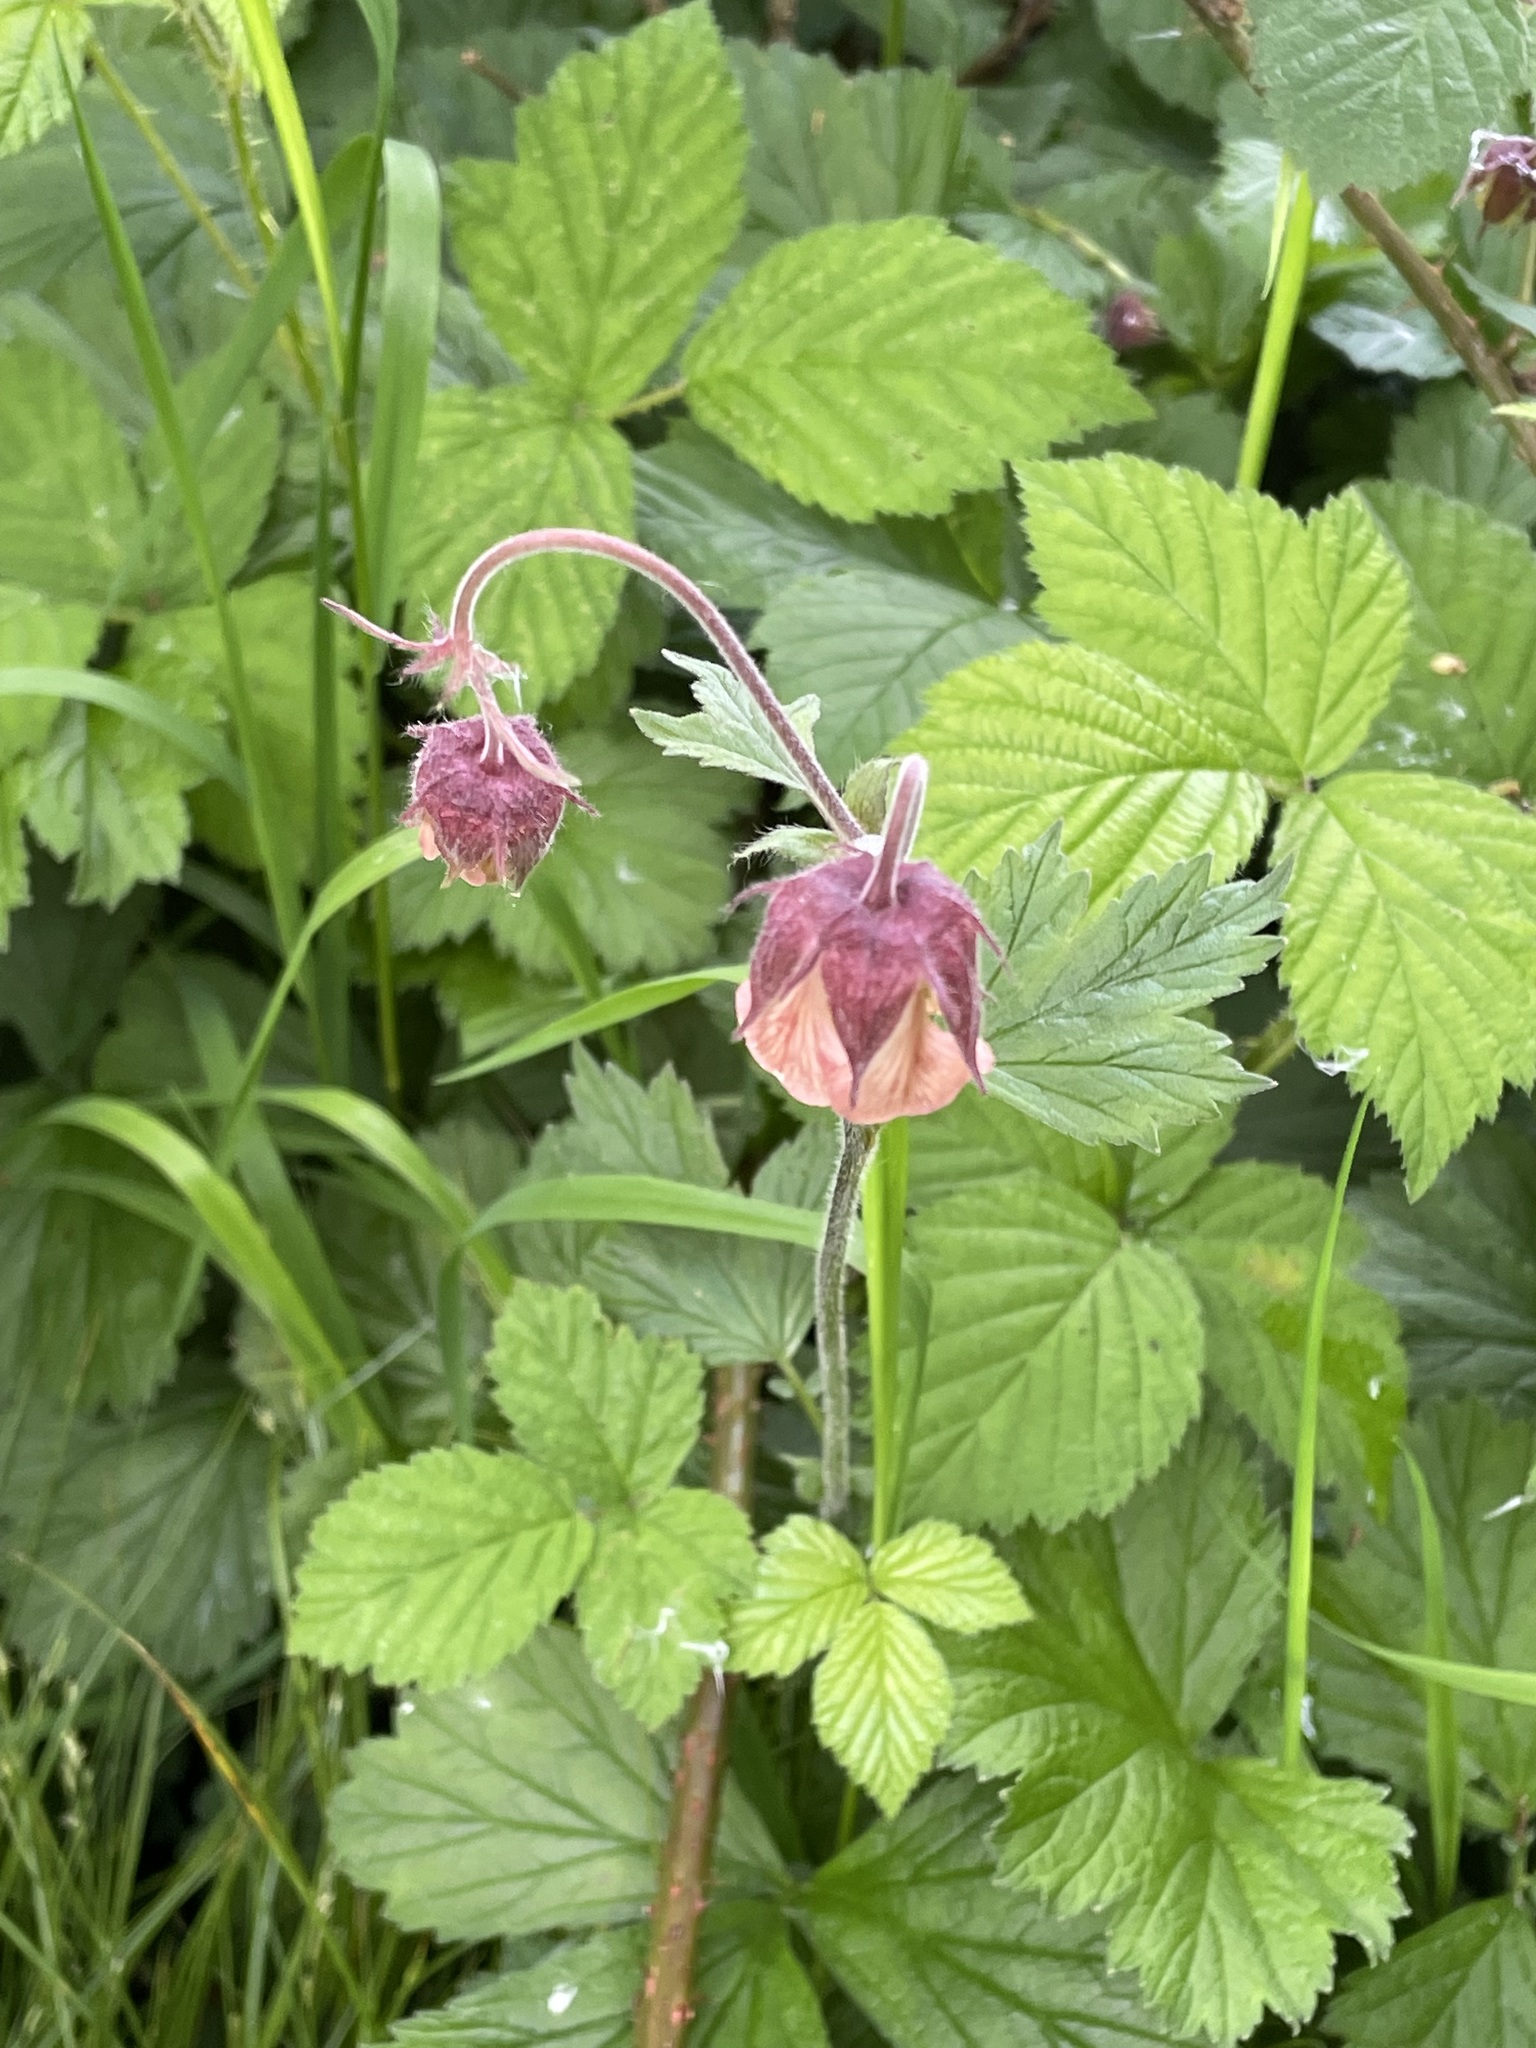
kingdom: Plantae
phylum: Tracheophyta
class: Magnoliopsida
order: Rosales
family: Rosaceae
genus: Geum
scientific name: Geum rivale
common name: Water avens
